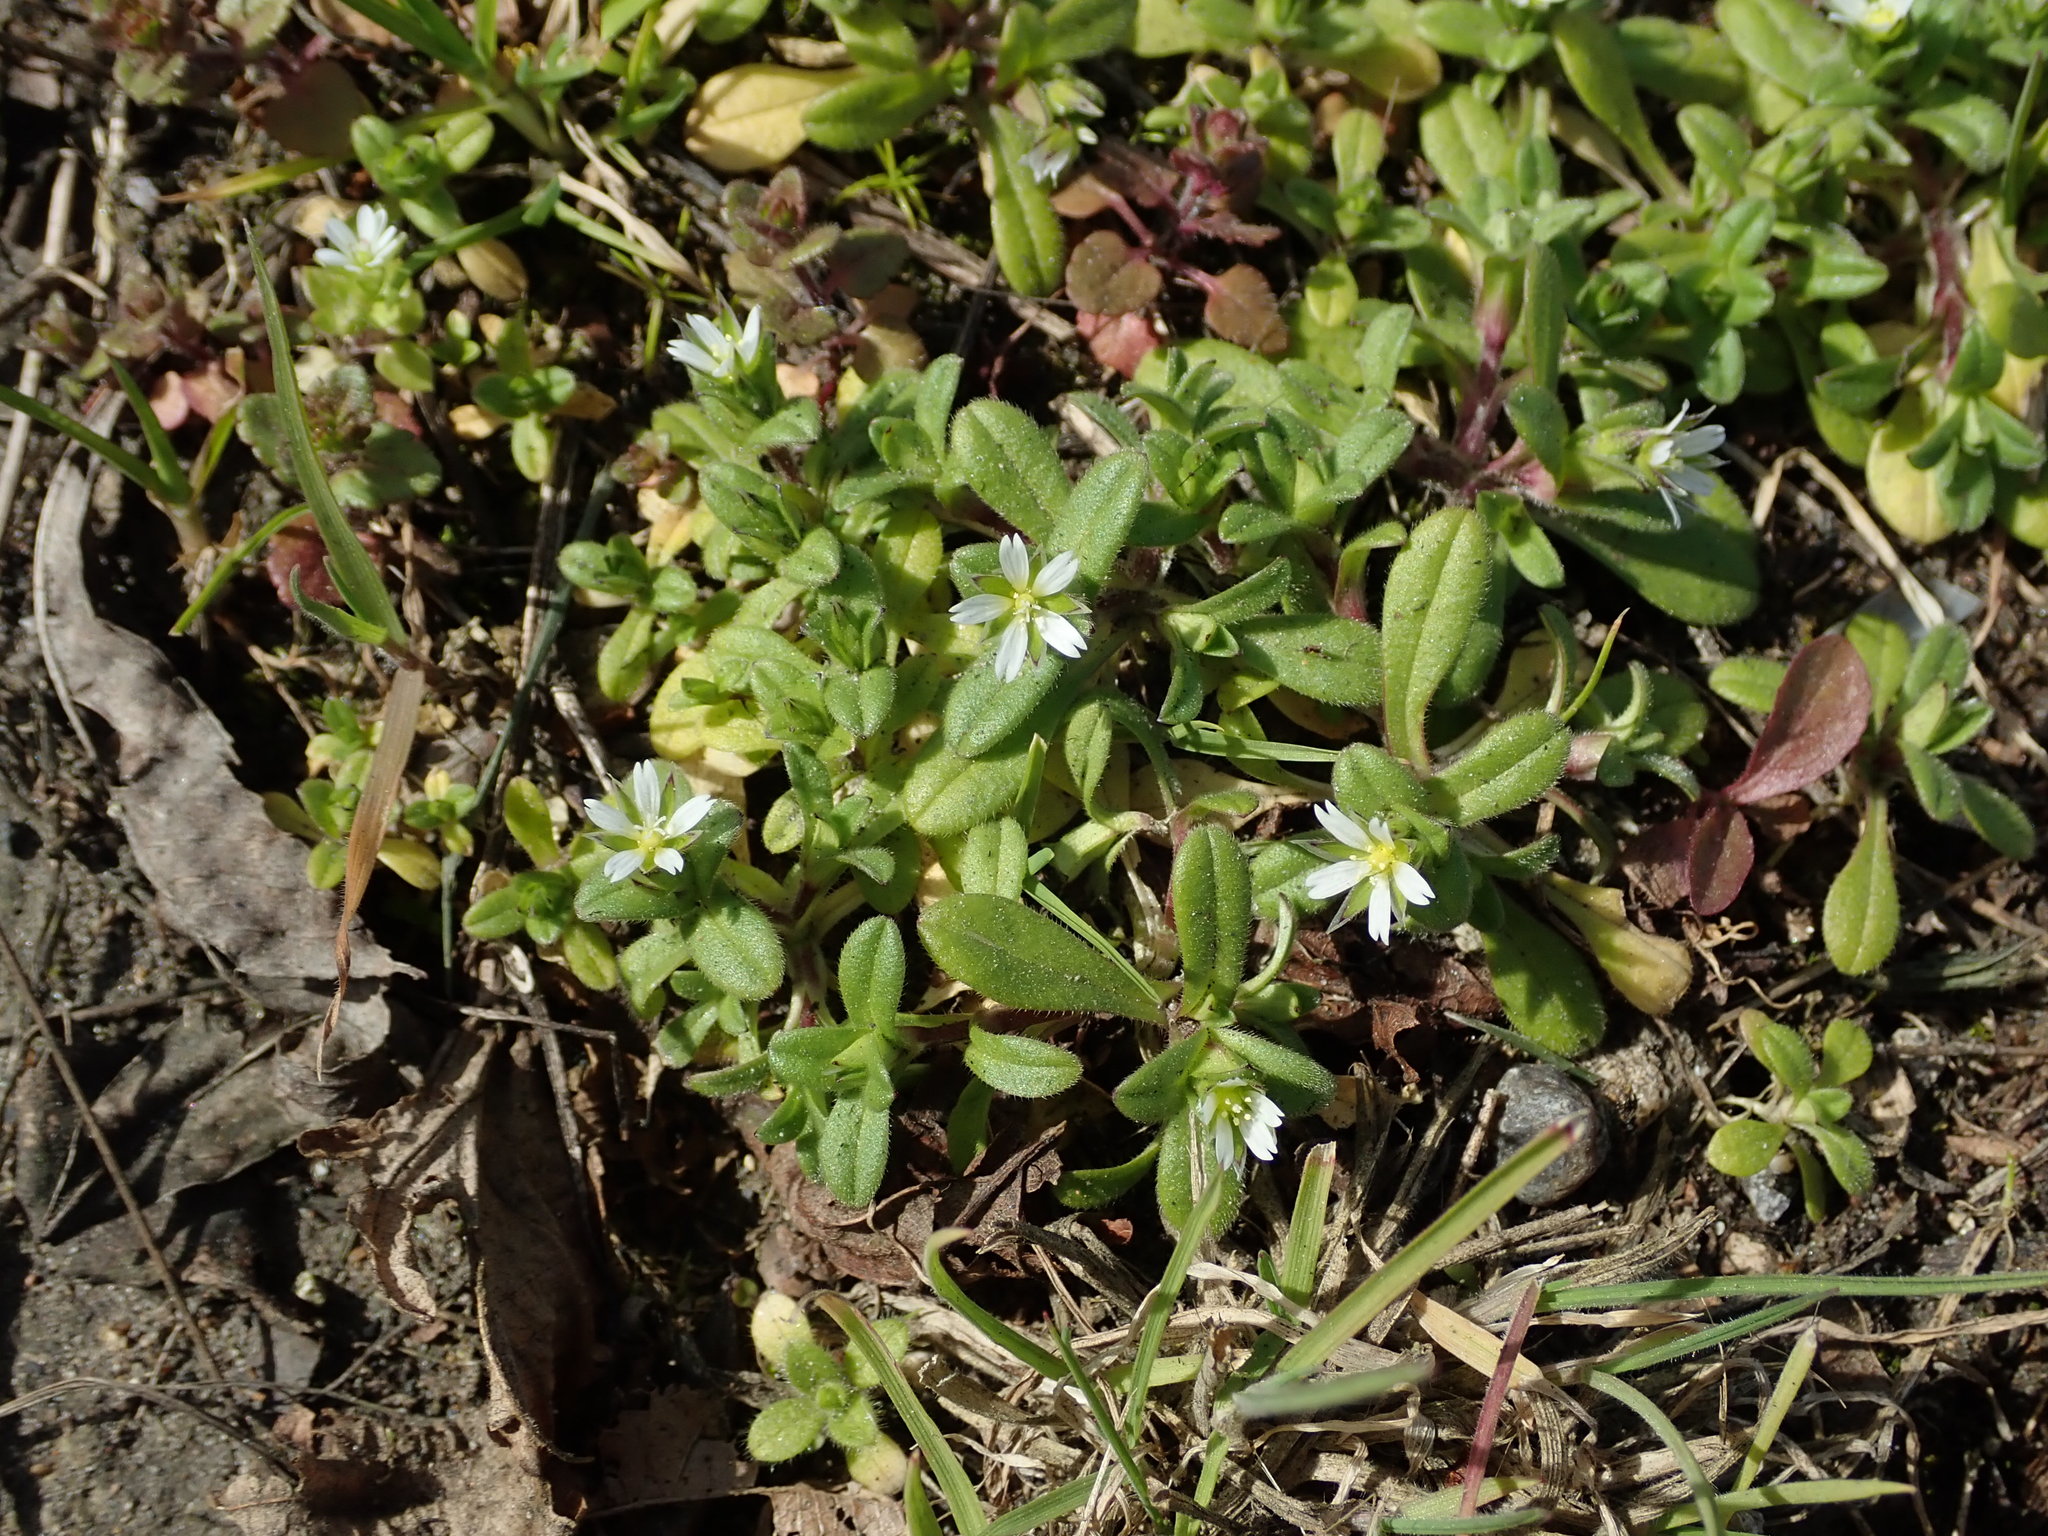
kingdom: Plantae
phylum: Tracheophyta
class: Magnoliopsida
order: Caryophyllales
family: Caryophyllaceae
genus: Cerastium
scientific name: Cerastium fontanum
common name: Common mouse-ear
